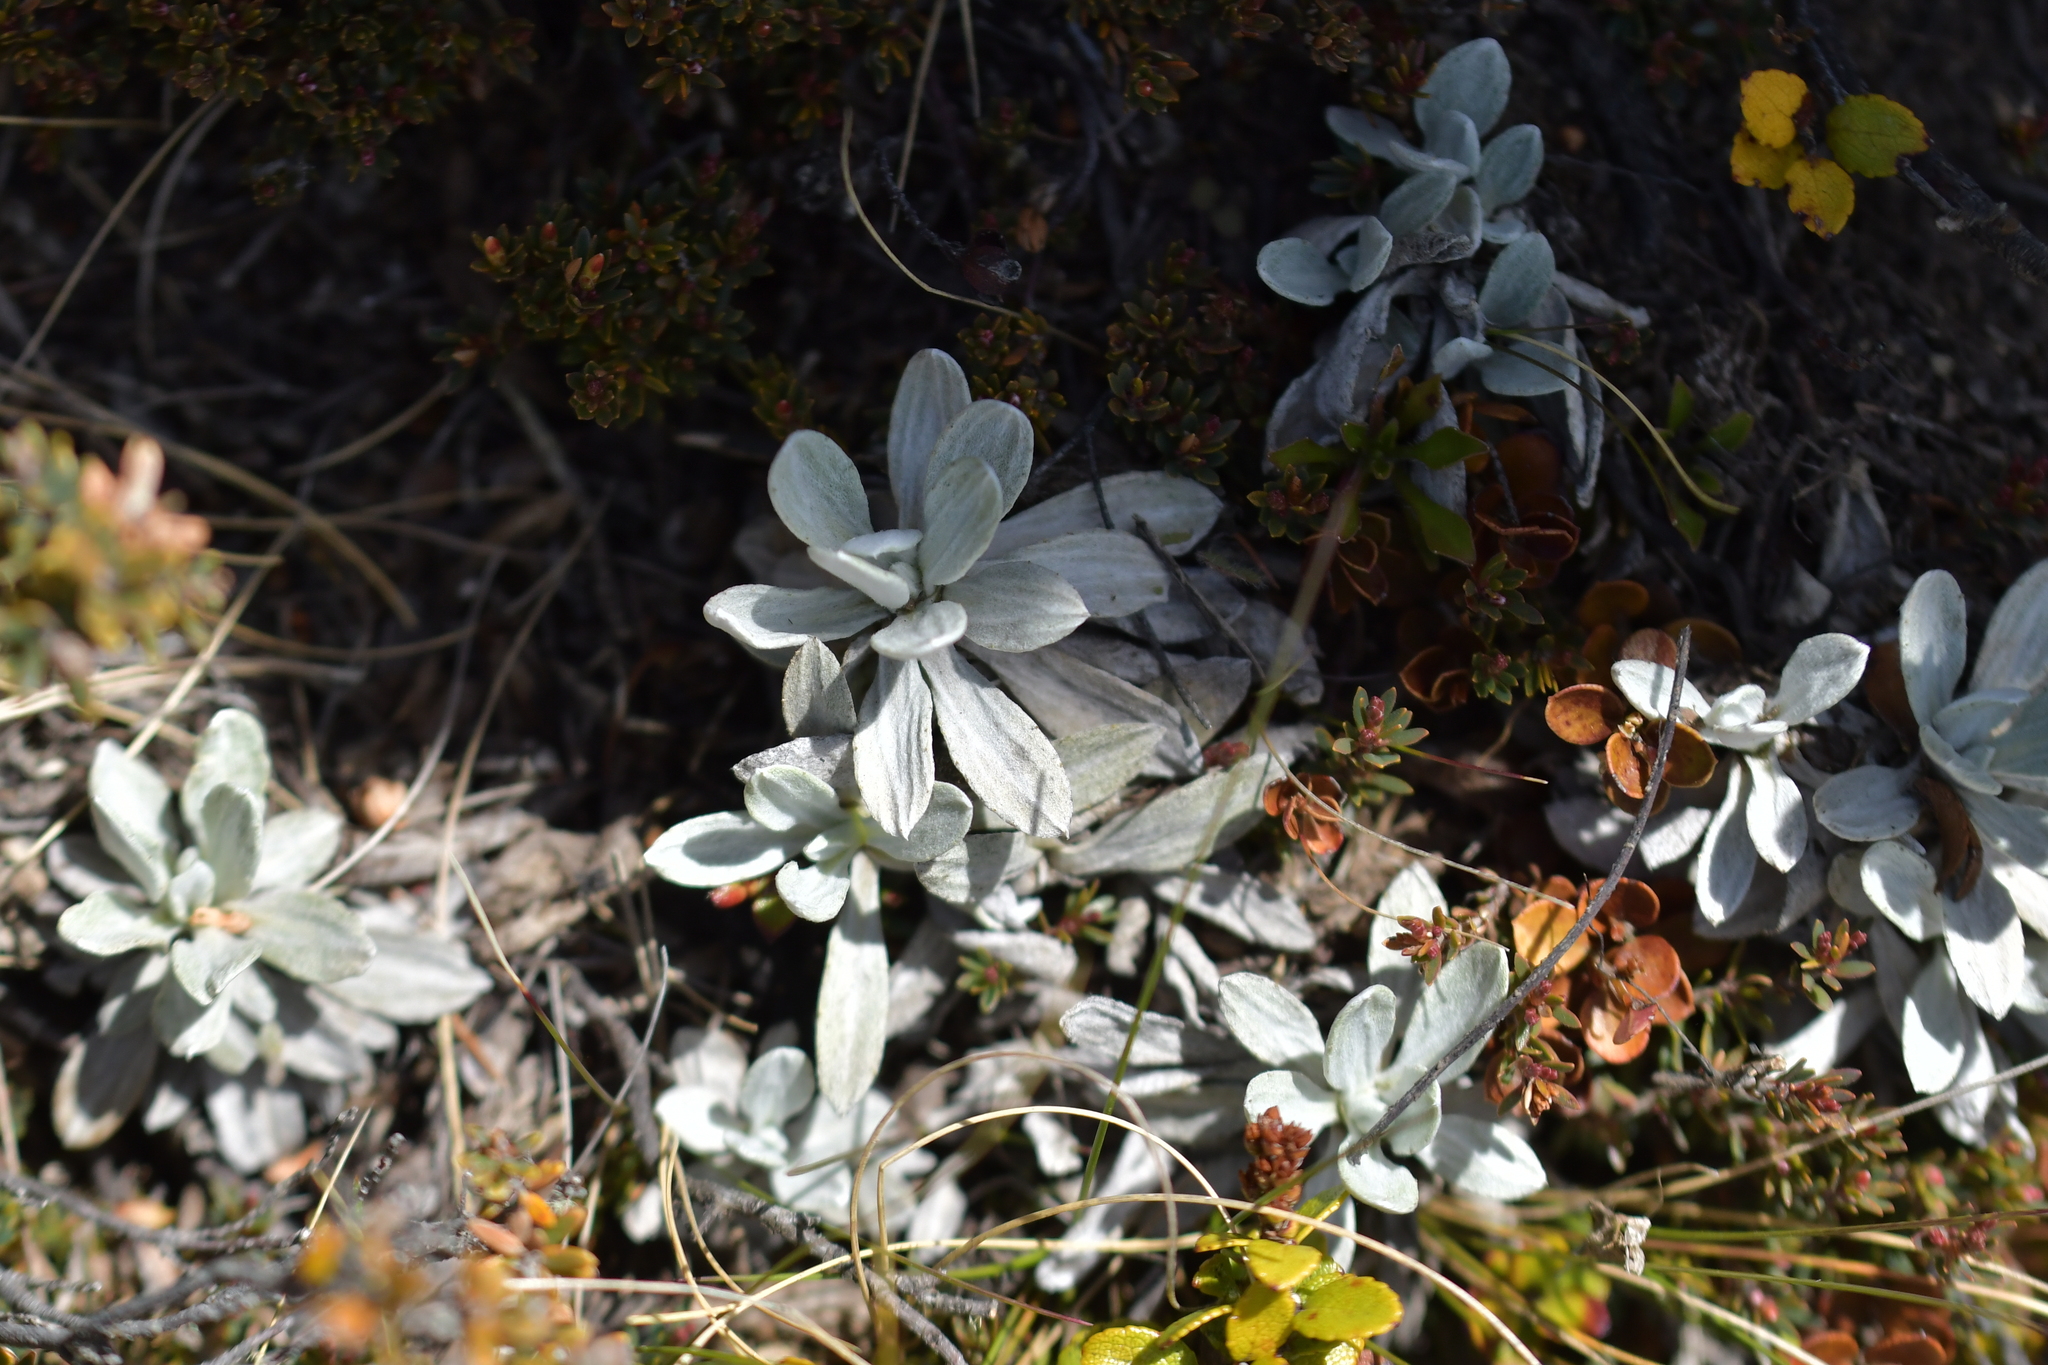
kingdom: Plantae
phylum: Tracheophyta
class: Magnoliopsida
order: Asterales
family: Asteraceae
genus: Celmisia
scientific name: Celmisia allanii
